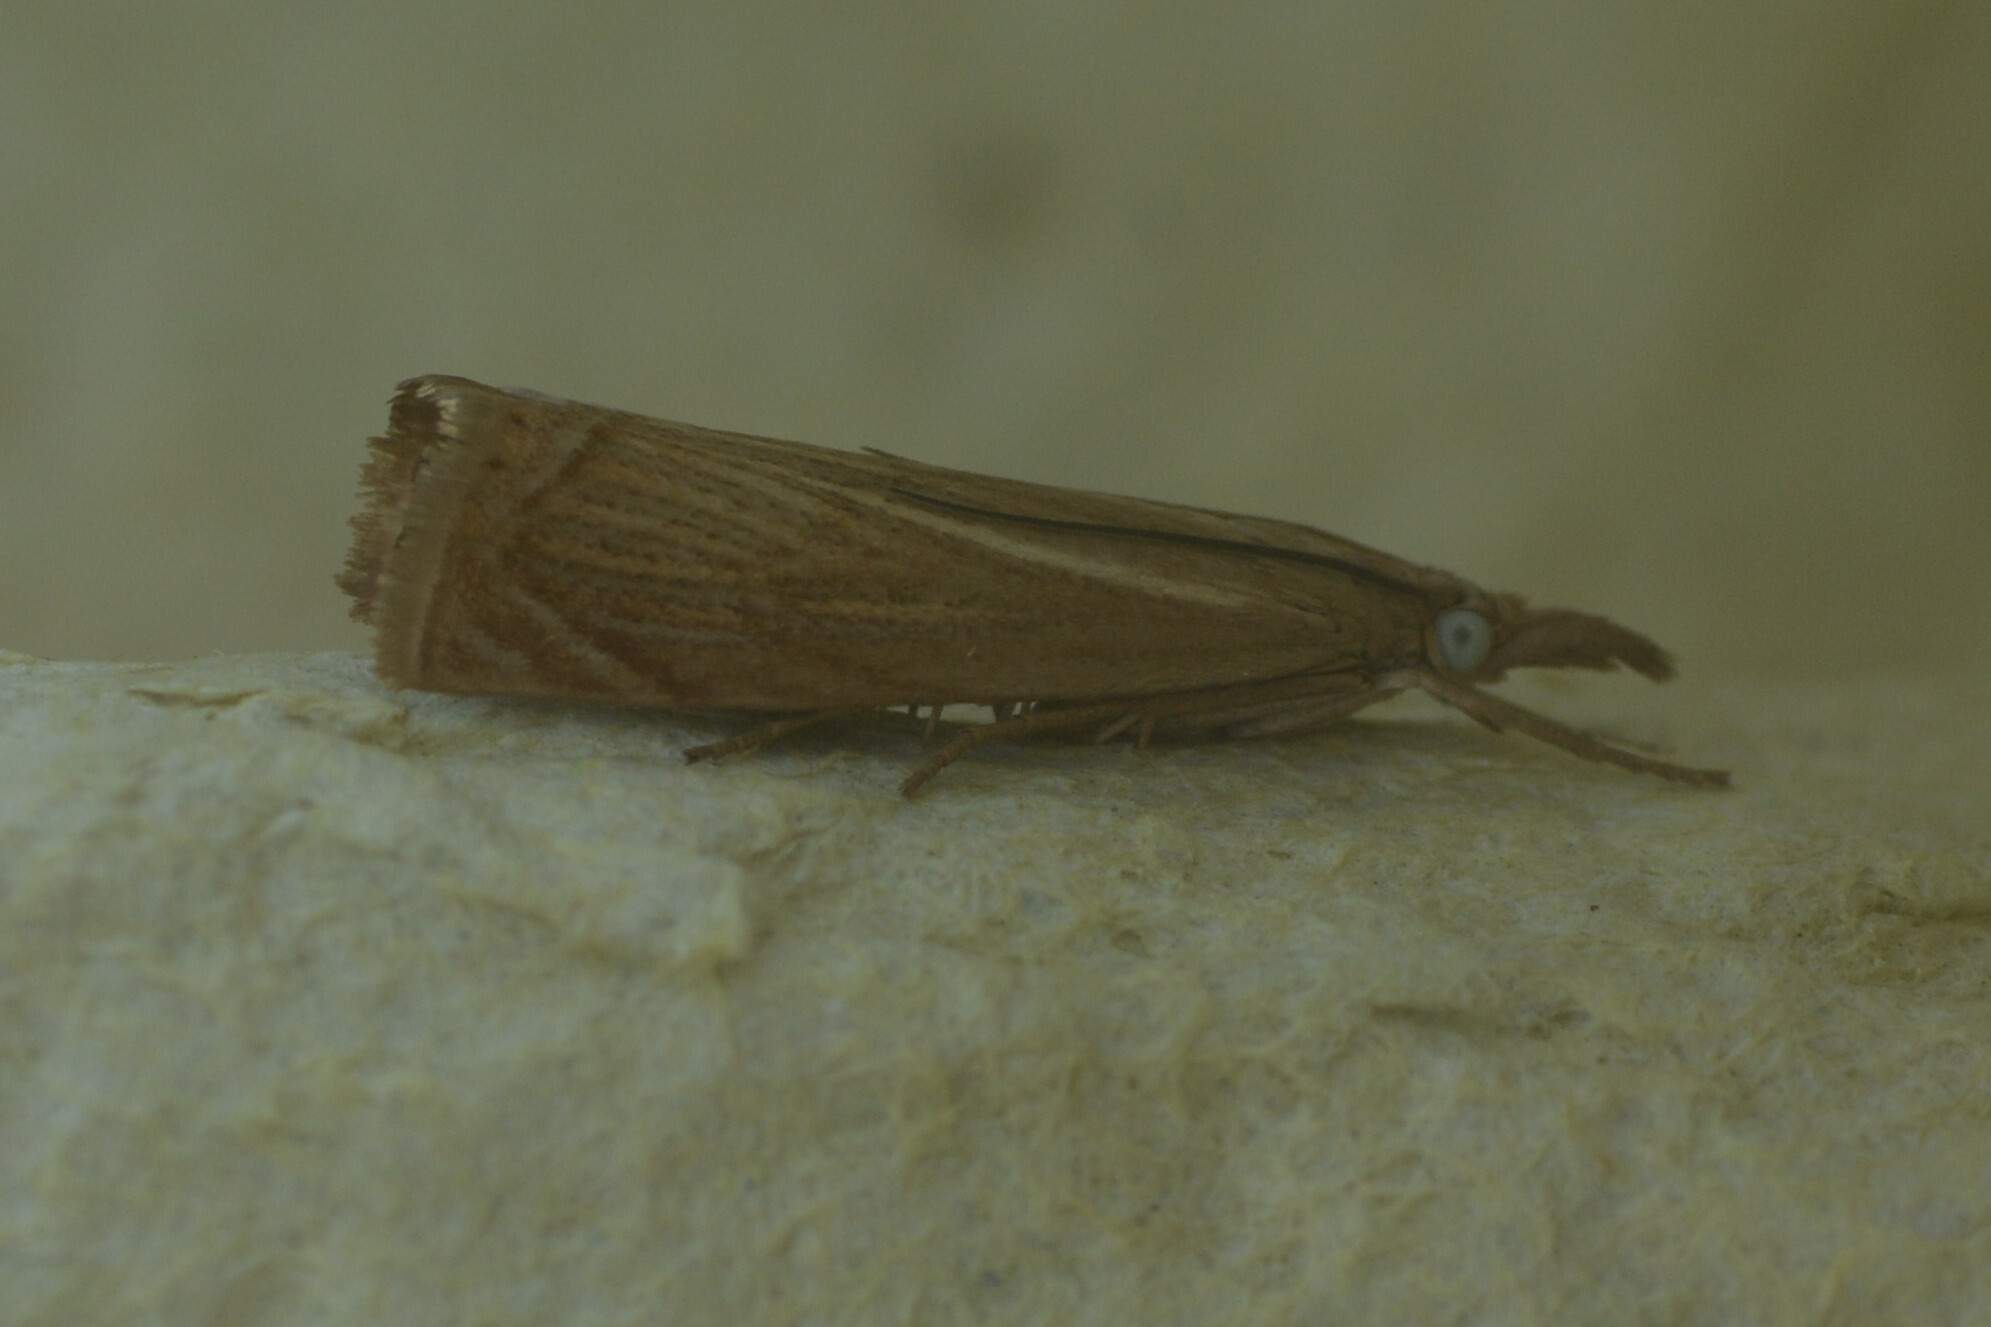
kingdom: Animalia
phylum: Arthropoda
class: Insecta
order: Lepidoptera
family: Crambidae
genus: Chrysoteuchia
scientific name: Chrysoteuchia culmella
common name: Garden grass-veneer
